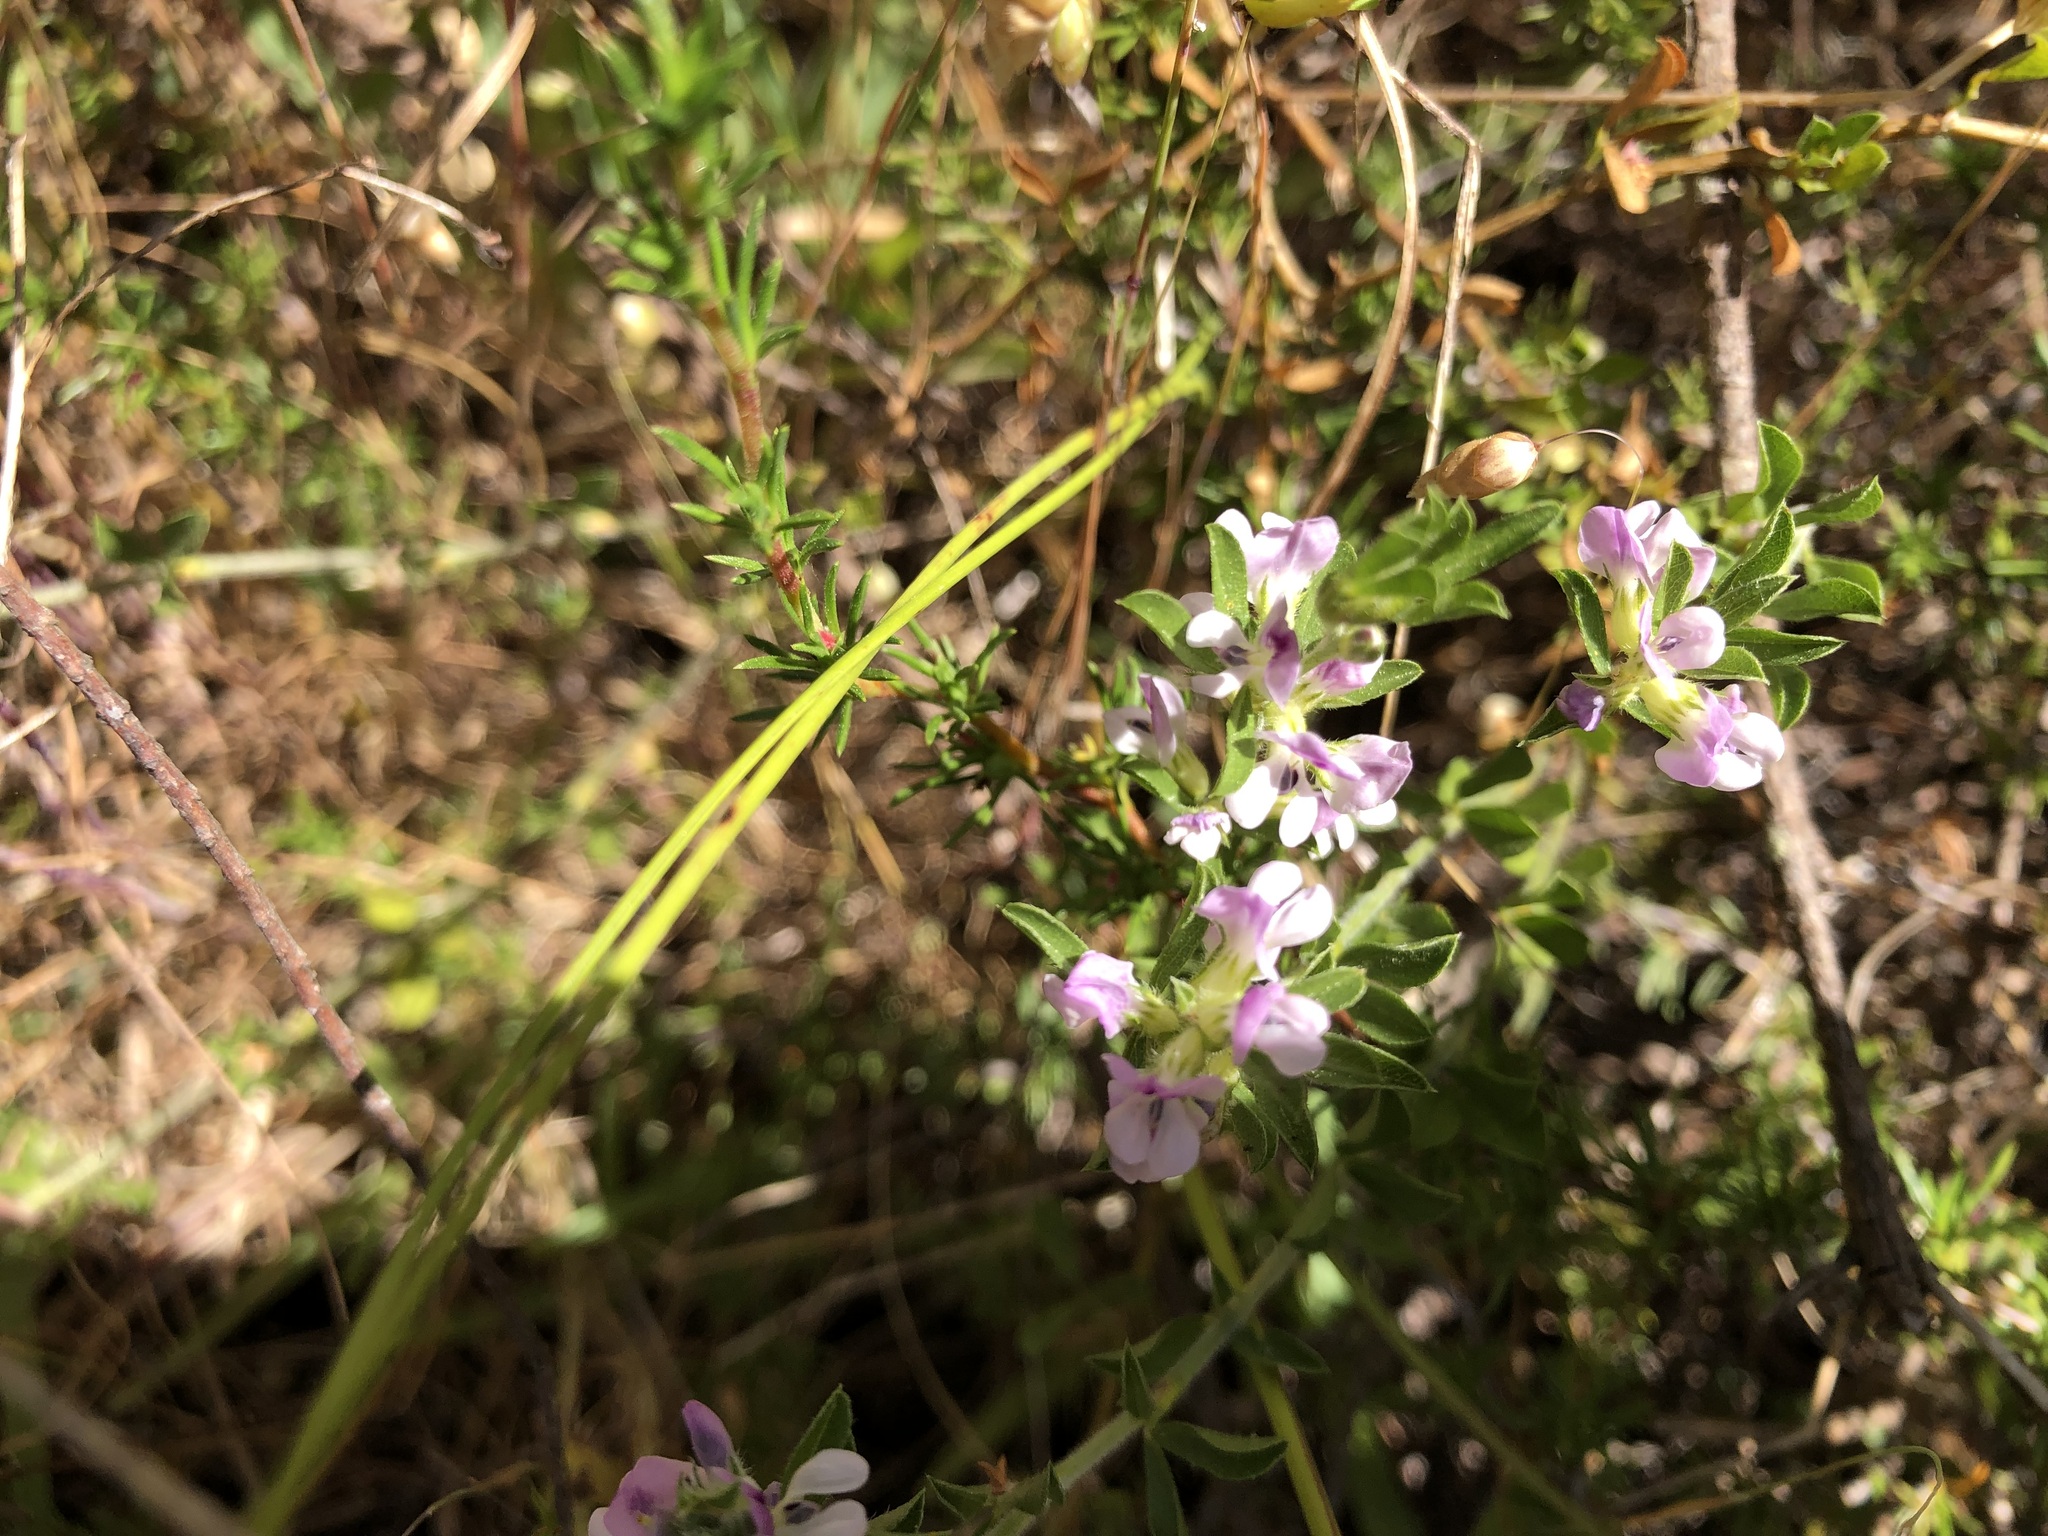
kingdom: Plantae
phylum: Tracheophyta
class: Magnoliopsida
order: Fabales
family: Fabaceae
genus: Psoralea
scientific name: Psoralea
